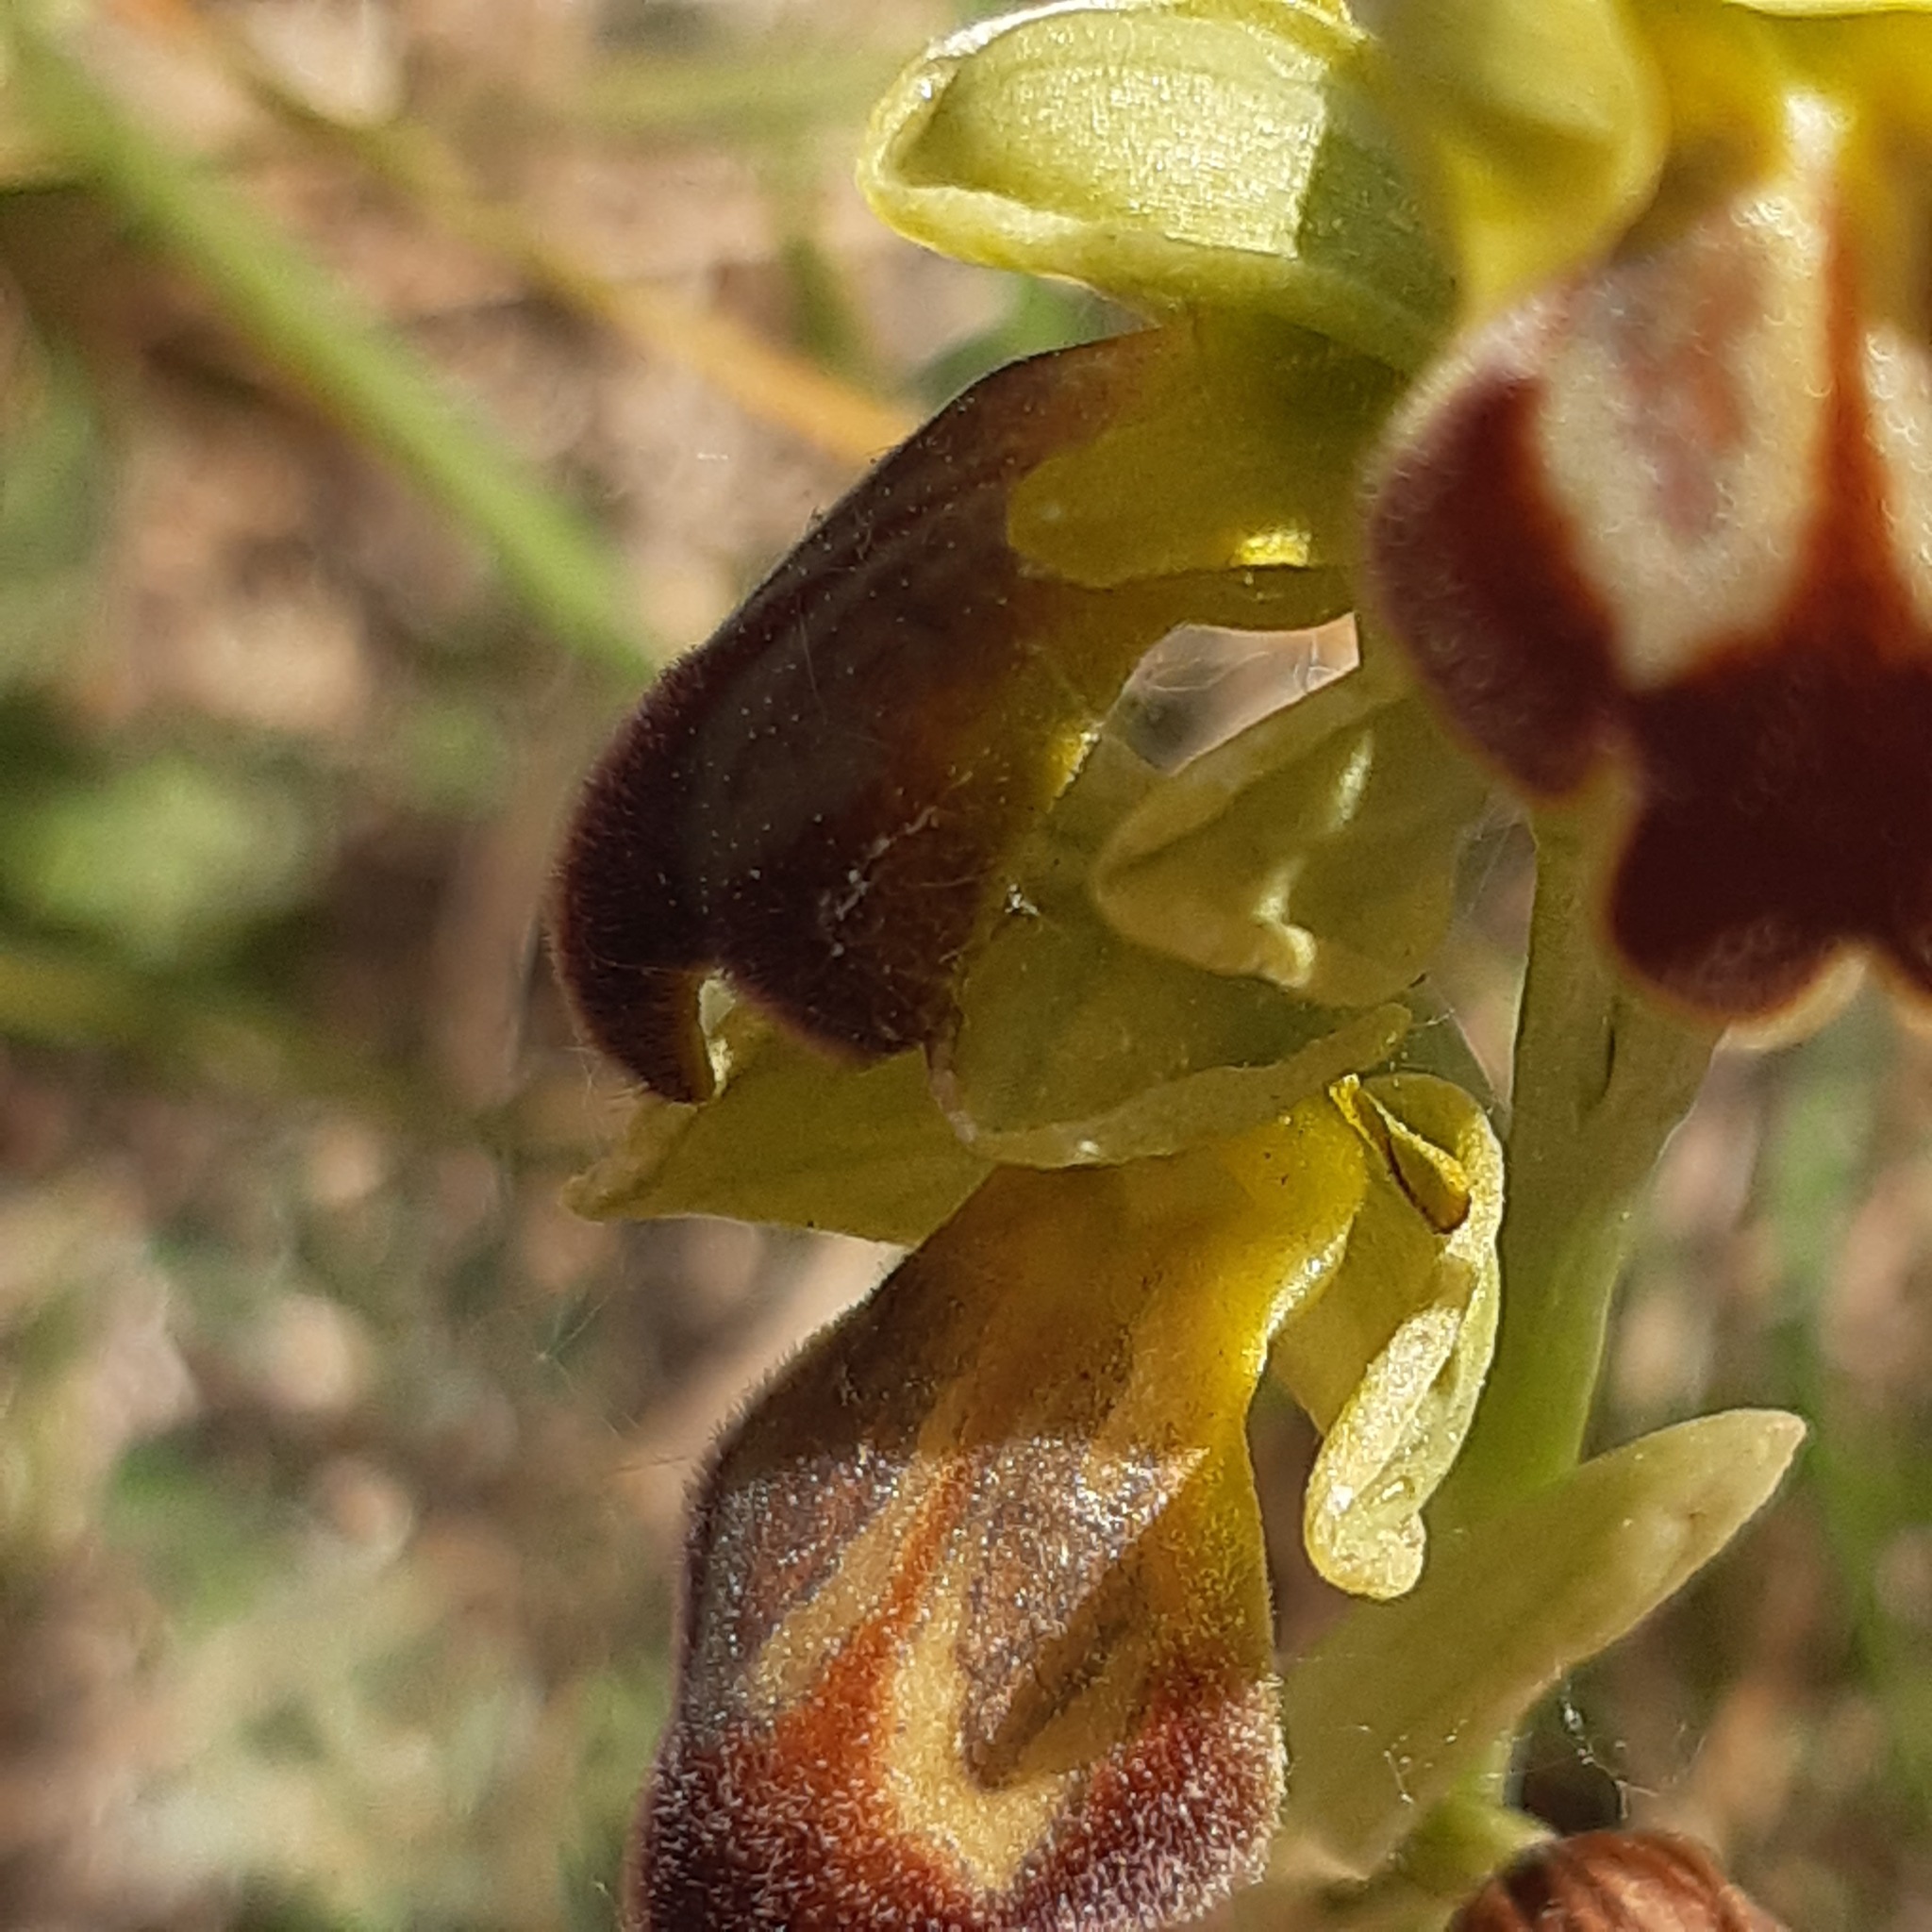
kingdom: Plantae
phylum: Tracheophyta
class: Liliopsida
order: Asparagales
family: Orchidaceae
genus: Ophrys
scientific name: Ophrys fusca
